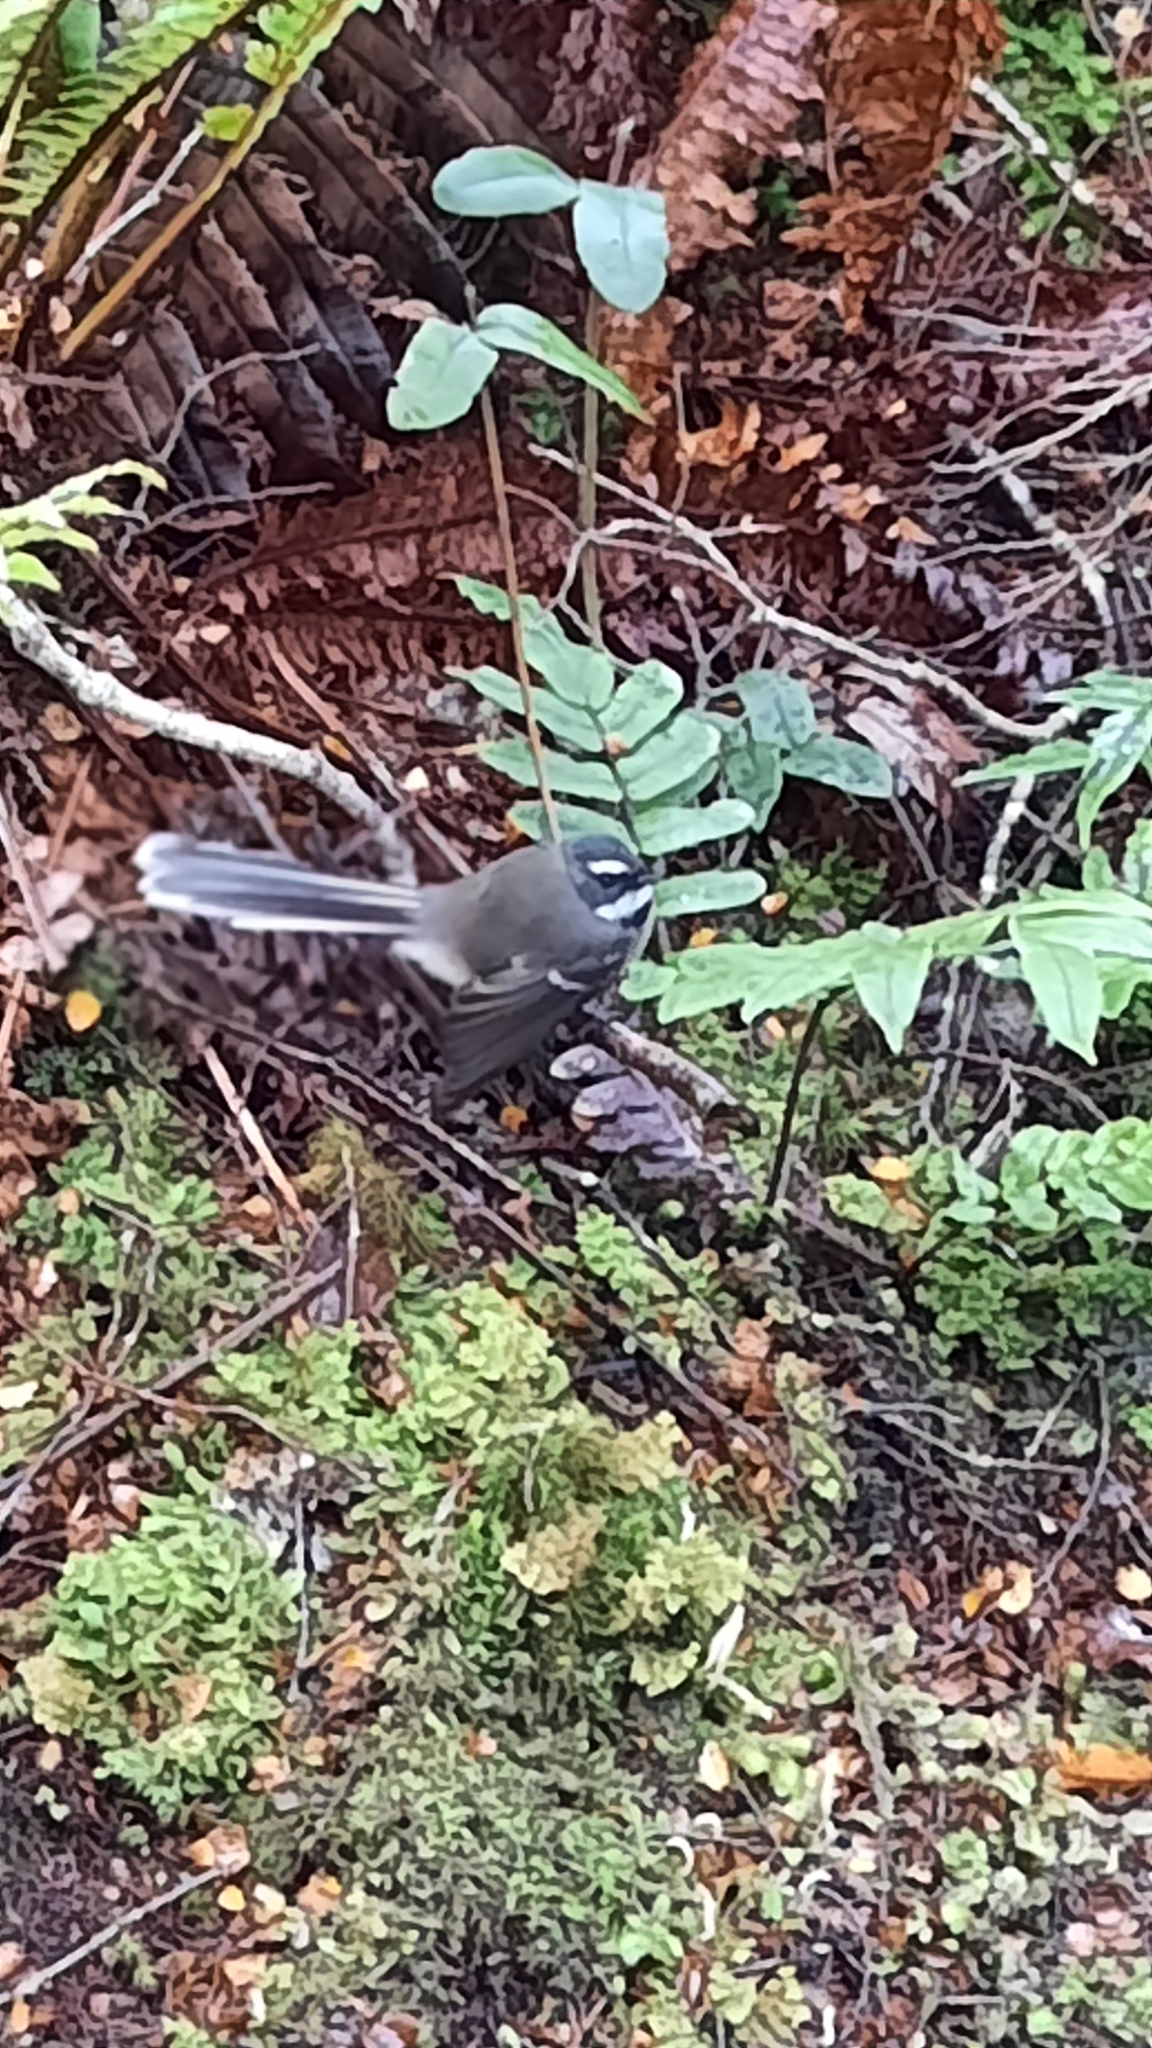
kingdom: Animalia
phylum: Chordata
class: Aves
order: Passeriformes
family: Rhipiduridae
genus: Rhipidura
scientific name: Rhipidura fuliginosa
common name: New zealand fantail
